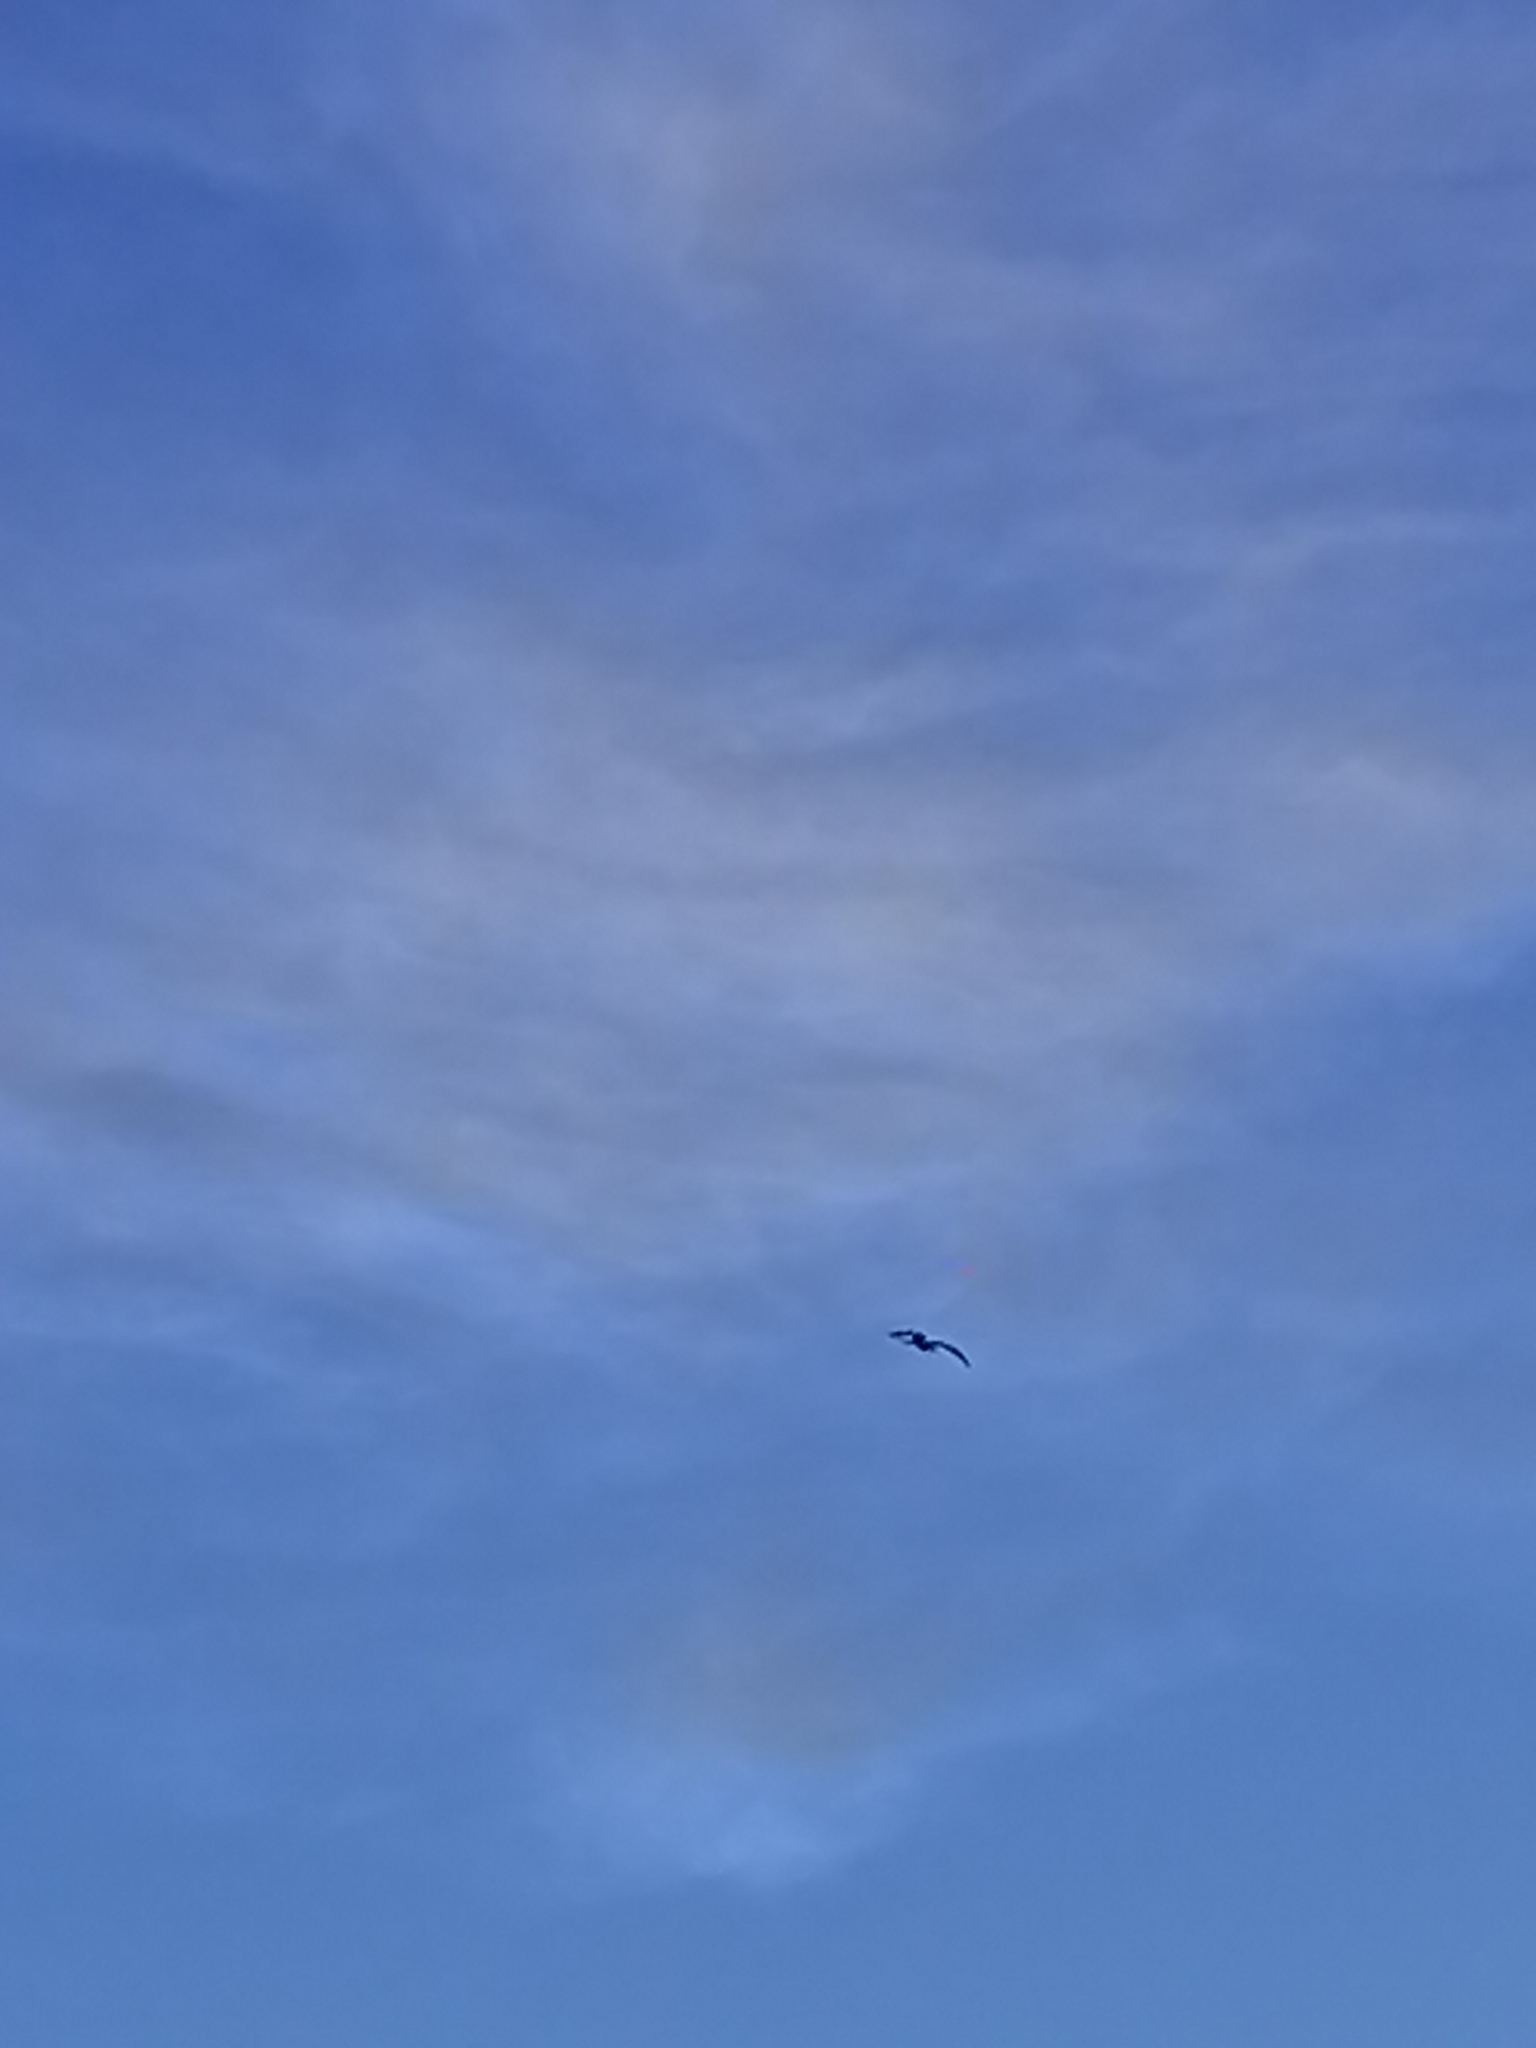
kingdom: Animalia
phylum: Chordata
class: Aves
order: Suliformes
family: Fregatidae
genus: Fregata
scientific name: Fregata magnificens
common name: Magnificent frigatebird
